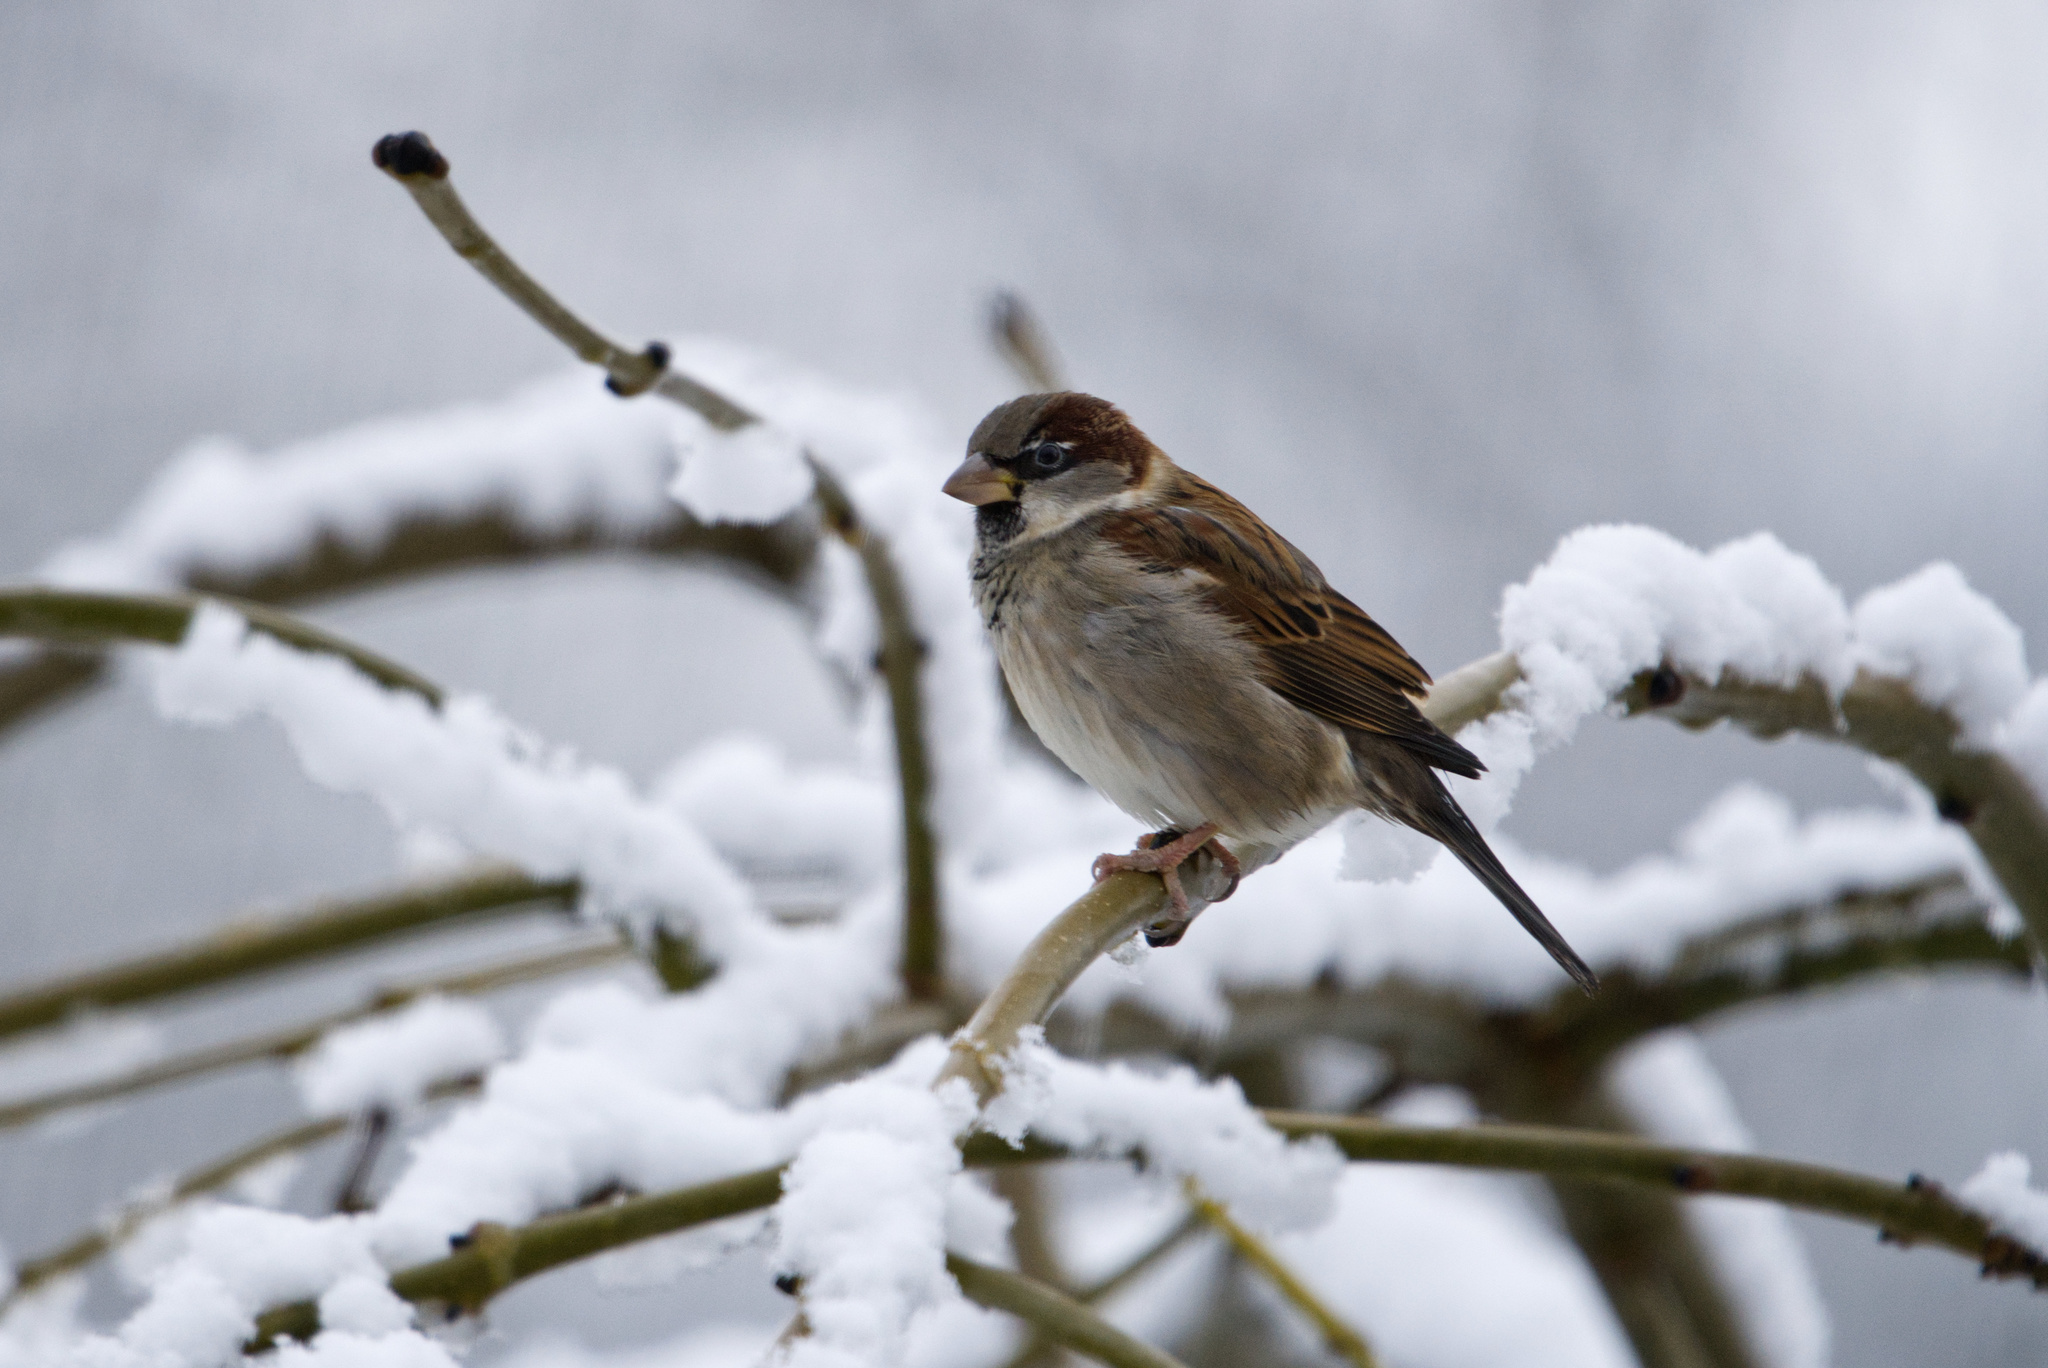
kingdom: Animalia
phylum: Chordata
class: Aves
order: Passeriformes
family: Passeridae
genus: Passer
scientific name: Passer domesticus
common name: House sparrow
